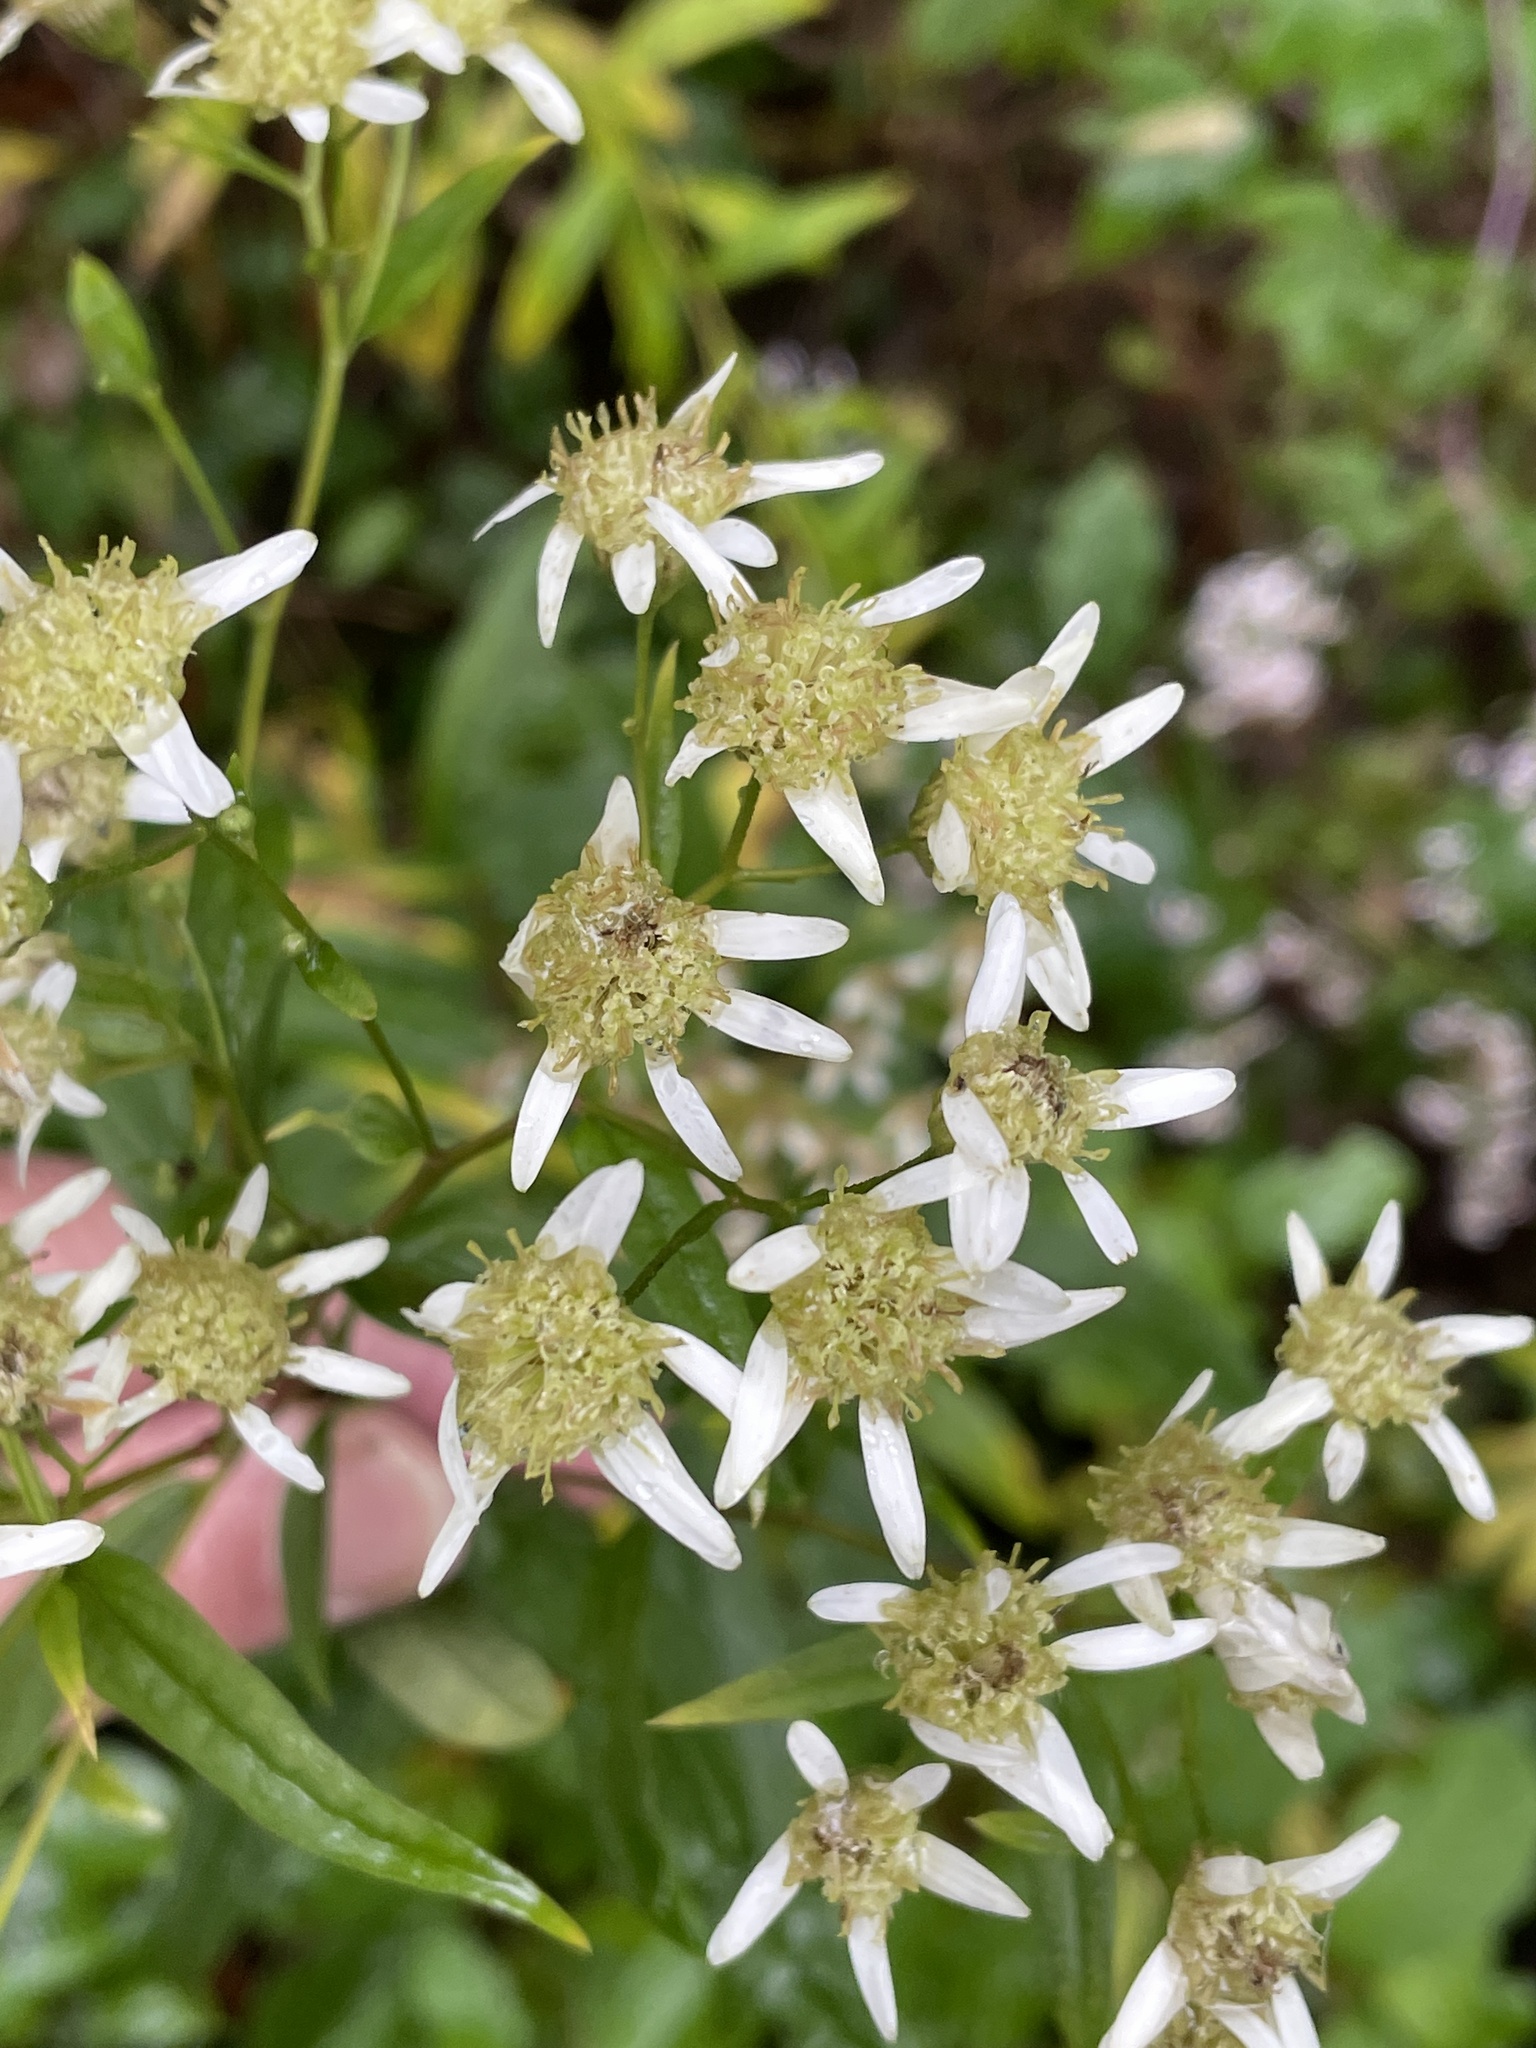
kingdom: Plantae
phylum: Tracheophyta
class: Magnoliopsida
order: Asterales
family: Asteraceae
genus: Doellingeria
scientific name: Doellingeria umbellata
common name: Flat-top white aster
